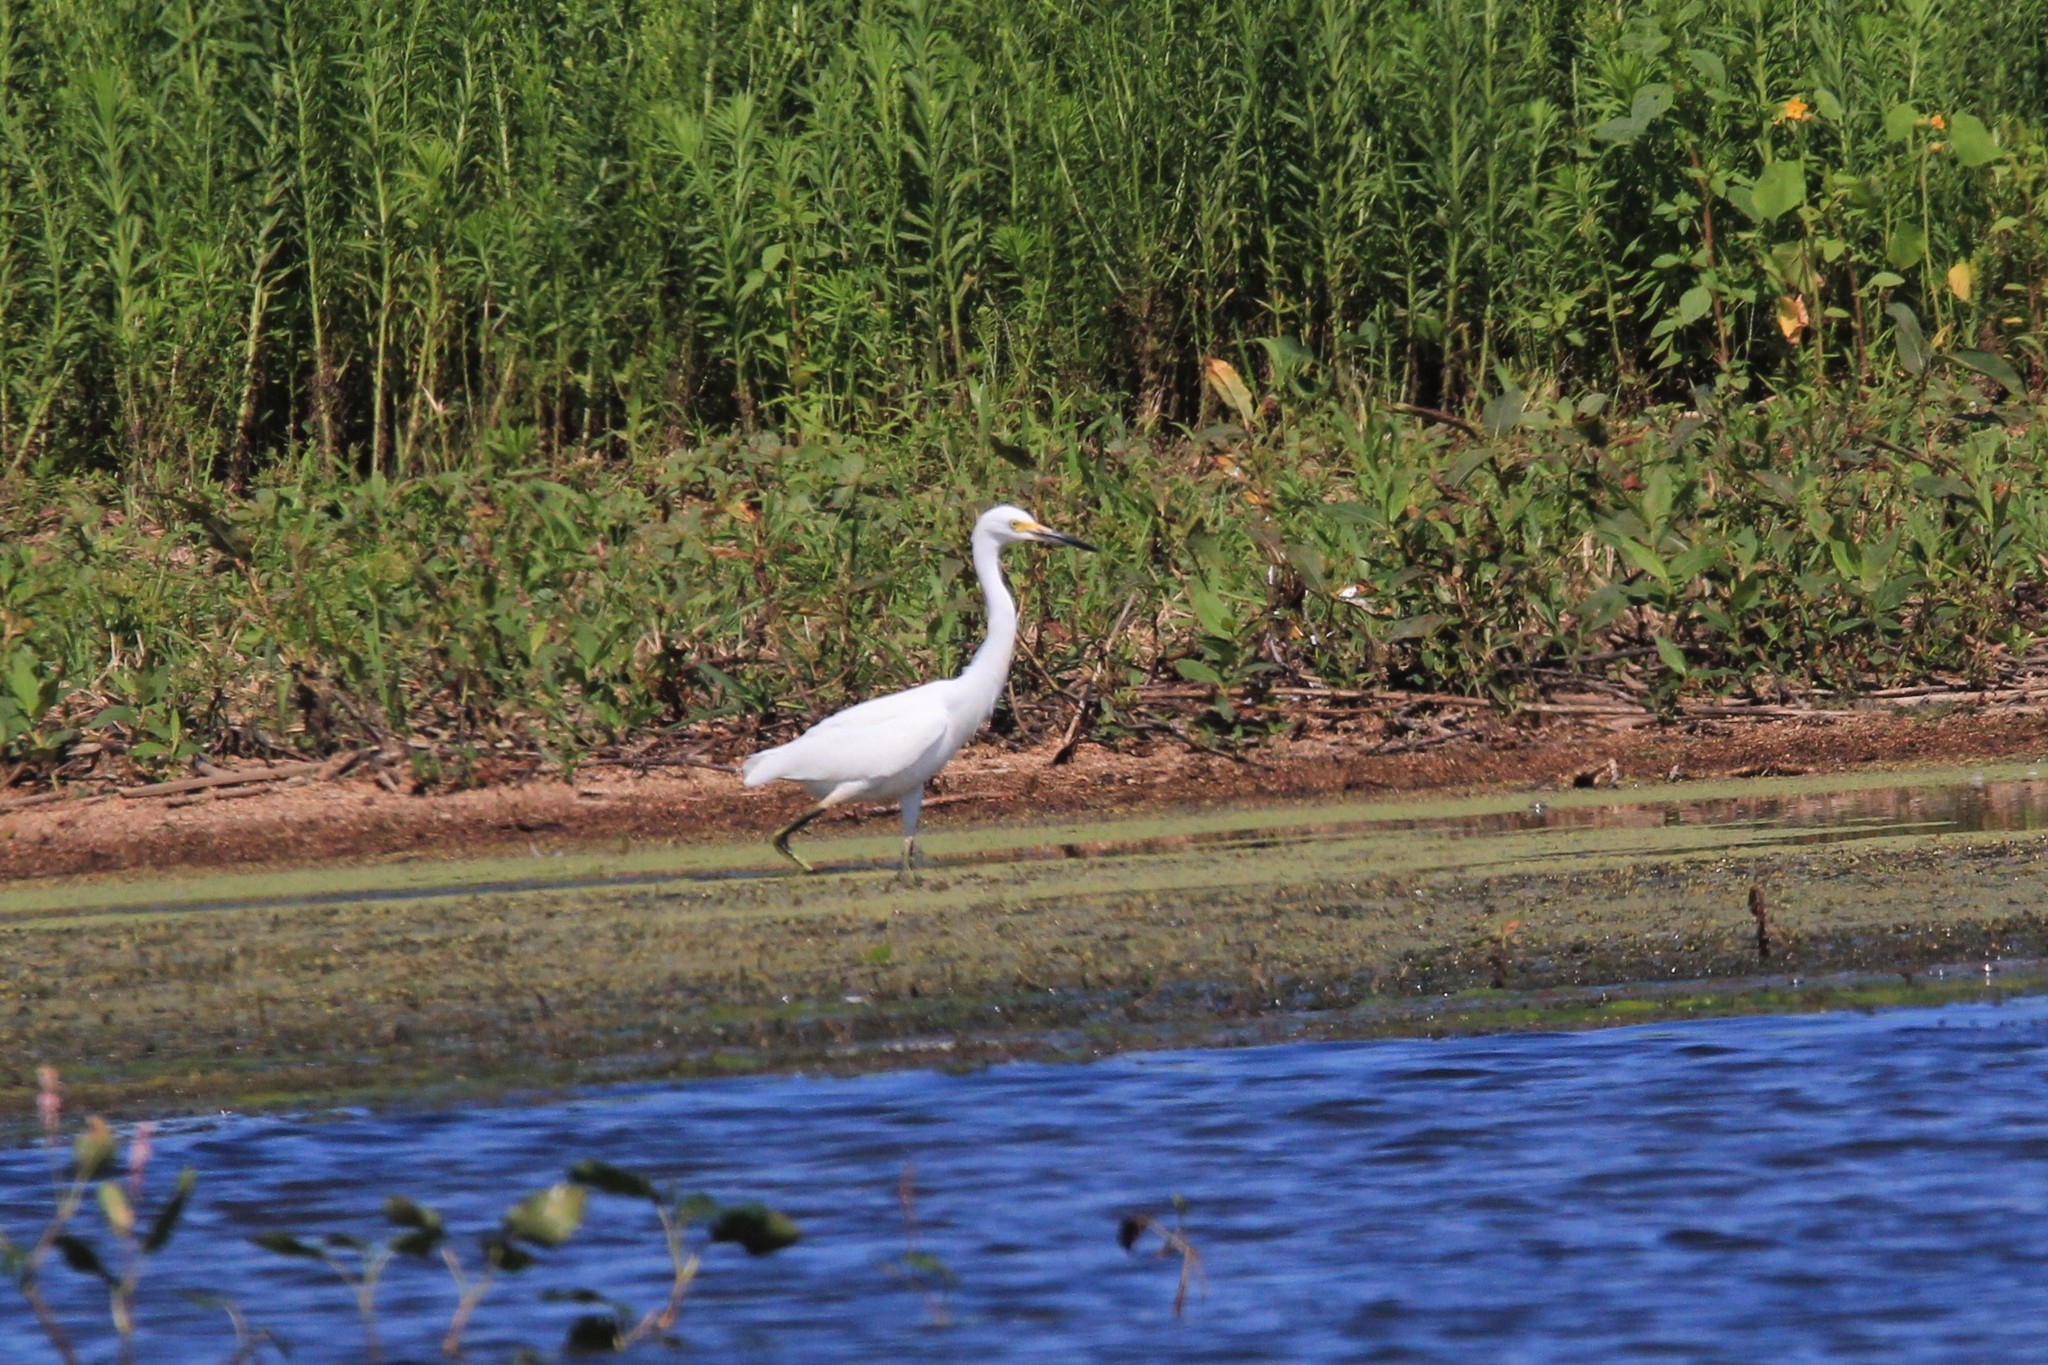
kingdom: Animalia
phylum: Chordata
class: Aves
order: Pelecaniformes
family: Ardeidae
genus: Egretta
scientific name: Egretta thula
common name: Snowy egret
